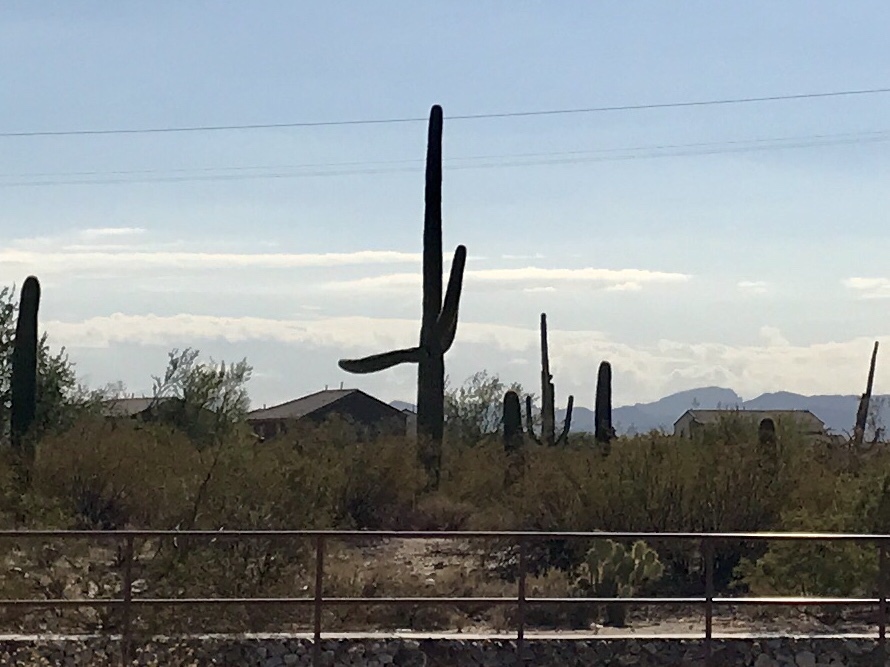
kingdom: Plantae
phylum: Tracheophyta
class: Magnoliopsida
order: Caryophyllales
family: Cactaceae
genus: Carnegiea
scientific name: Carnegiea gigantea
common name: Saguaro
